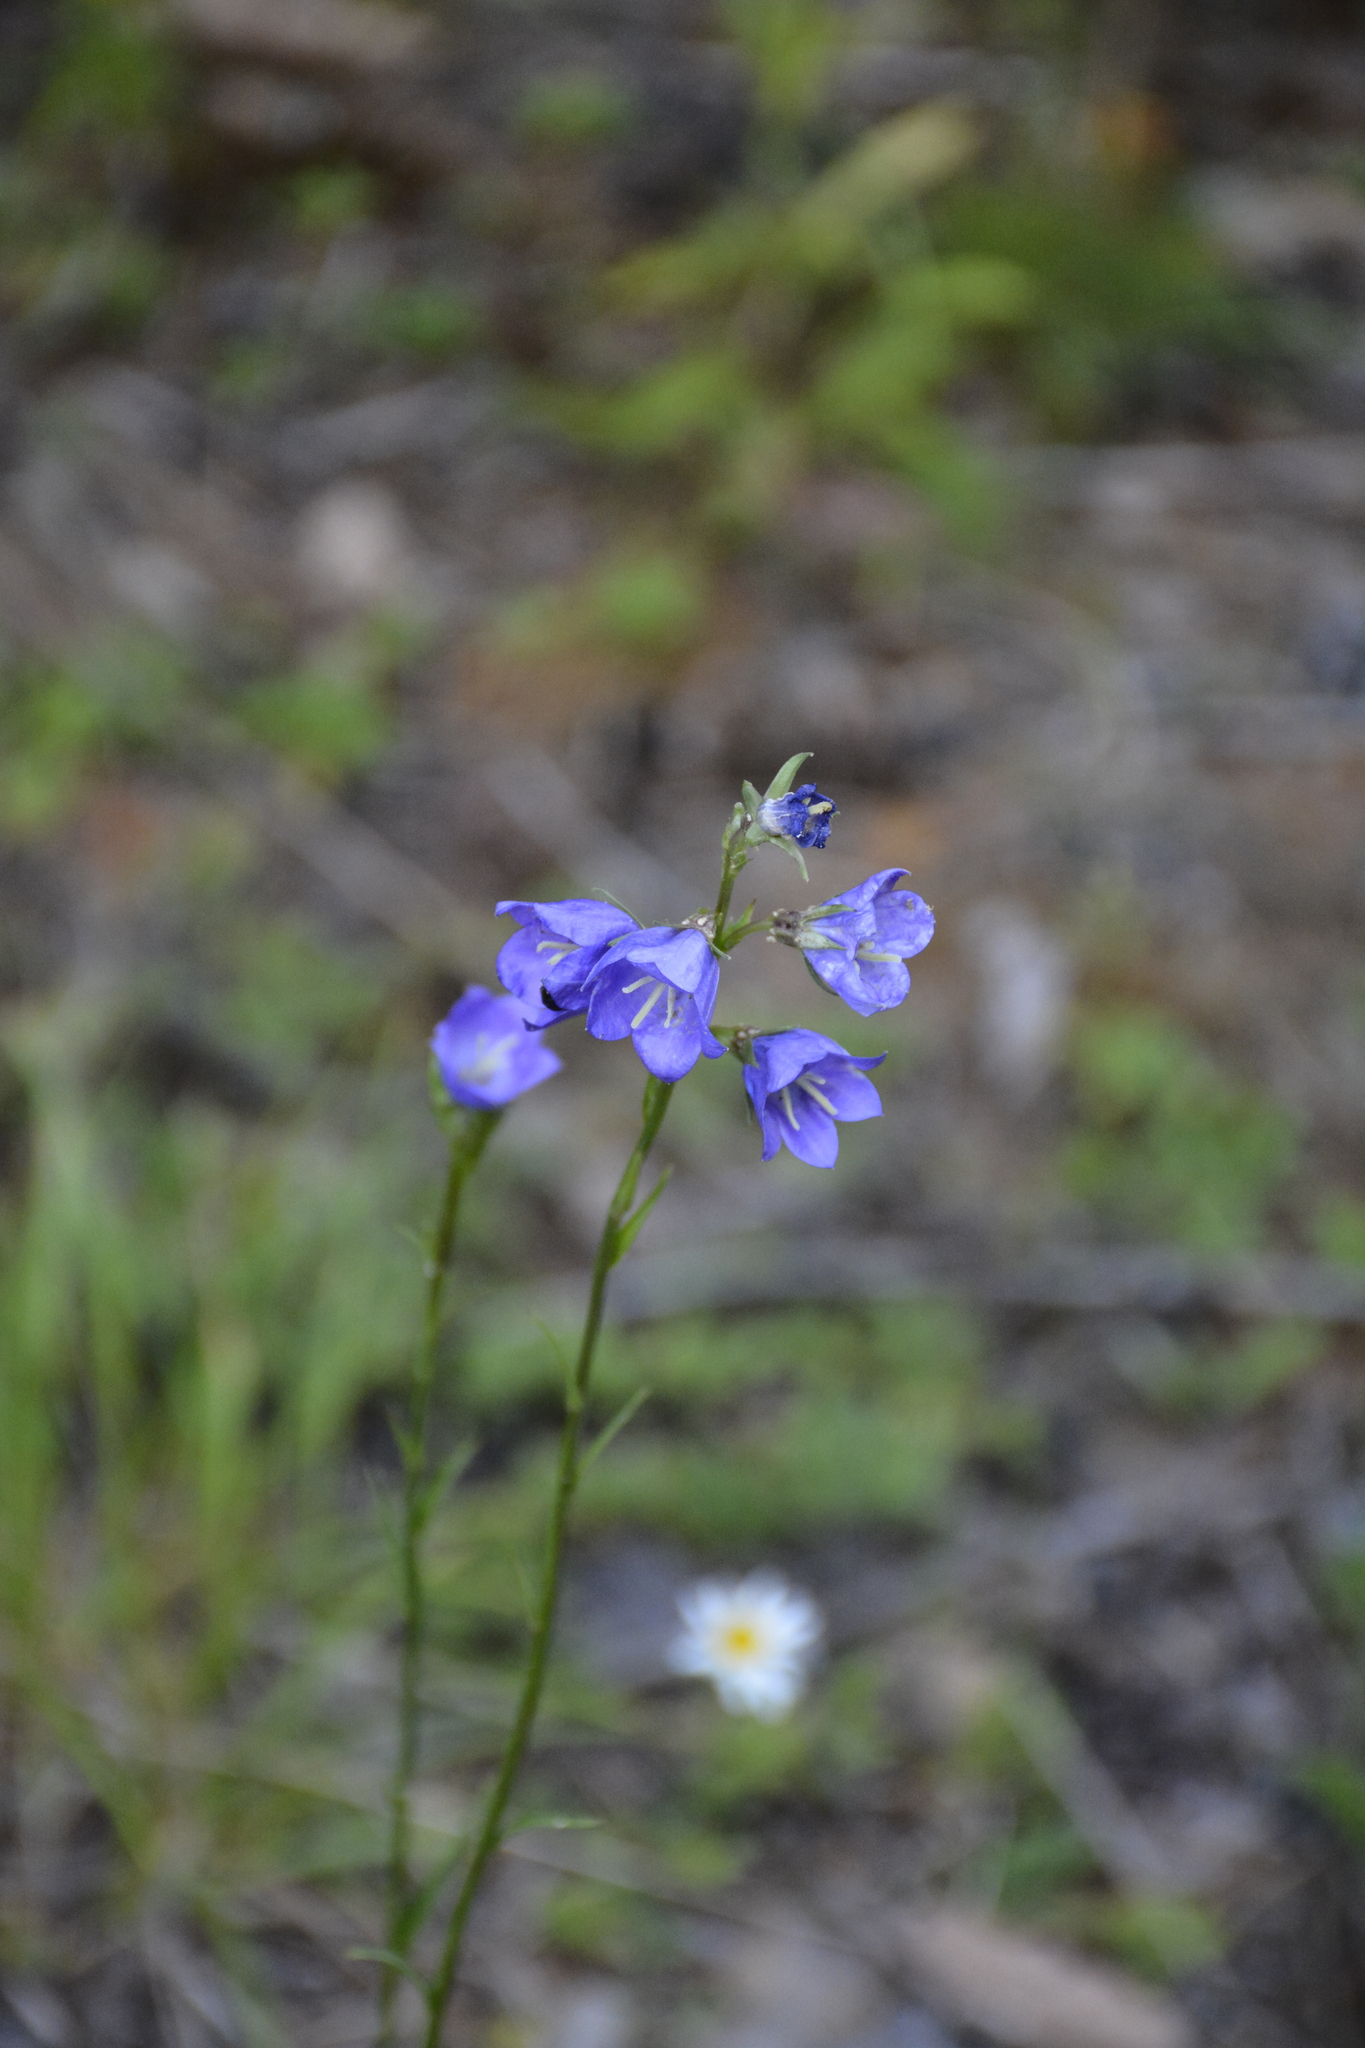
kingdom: Plantae
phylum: Tracheophyta
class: Magnoliopsida
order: Asterales
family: Campanulaceae
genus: Campanula
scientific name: Campanula persicifolia
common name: Peach-leaved bellflower
